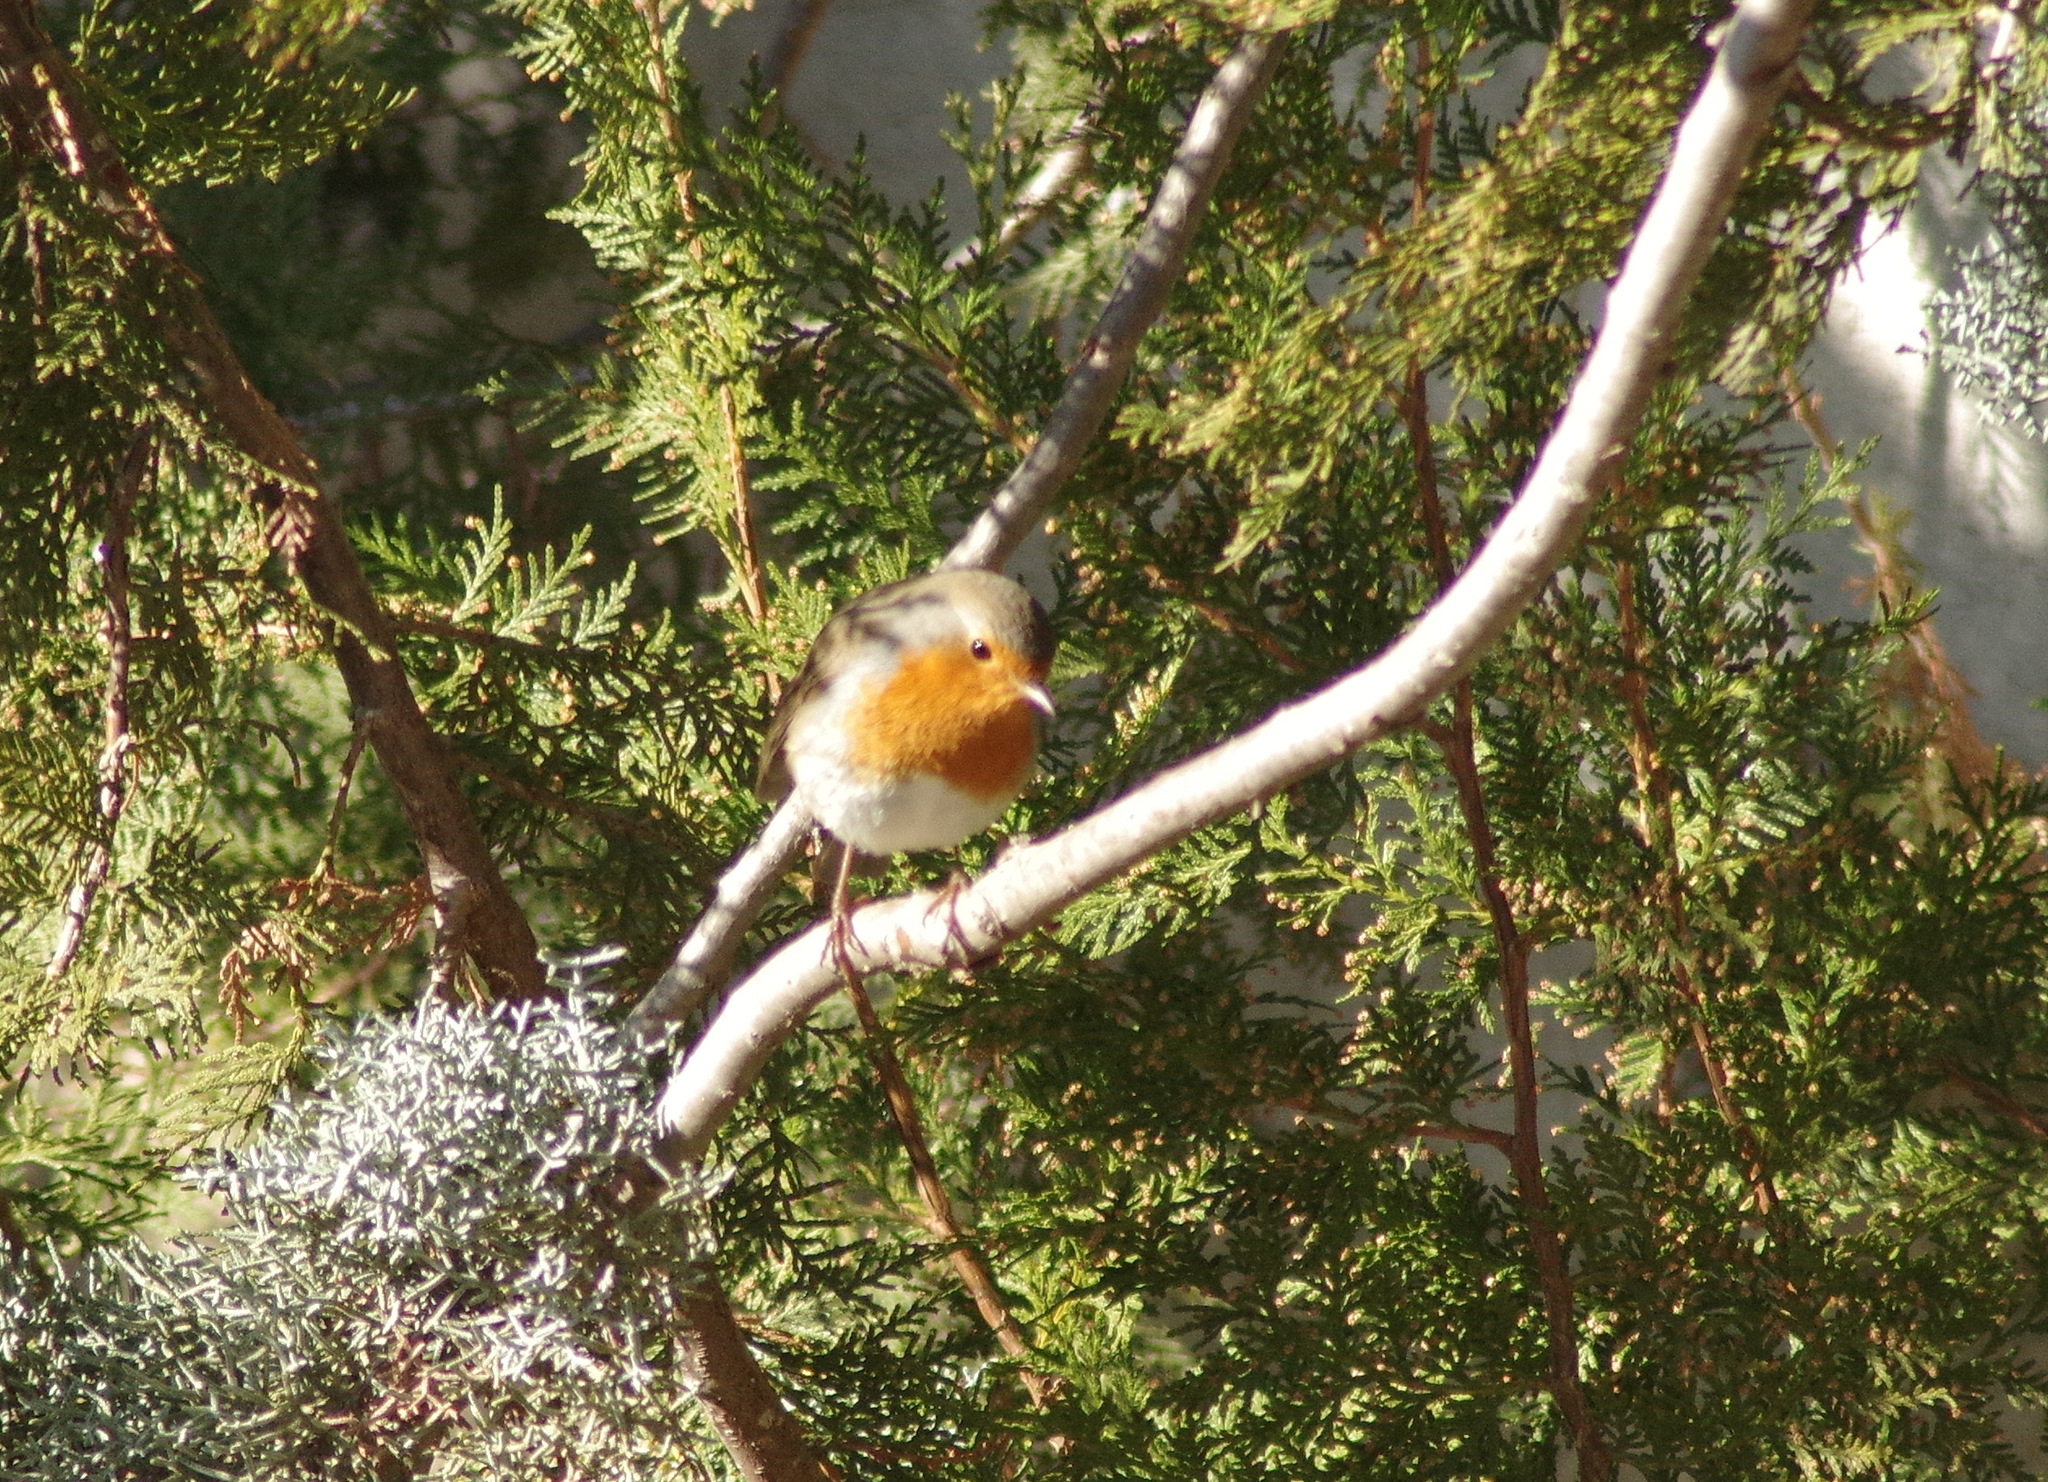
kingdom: Animalia
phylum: Chordata
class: Aves
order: Passeriformes
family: Muscicapidae
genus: Erithacus
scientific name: Erithacus rubecula
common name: European robin
